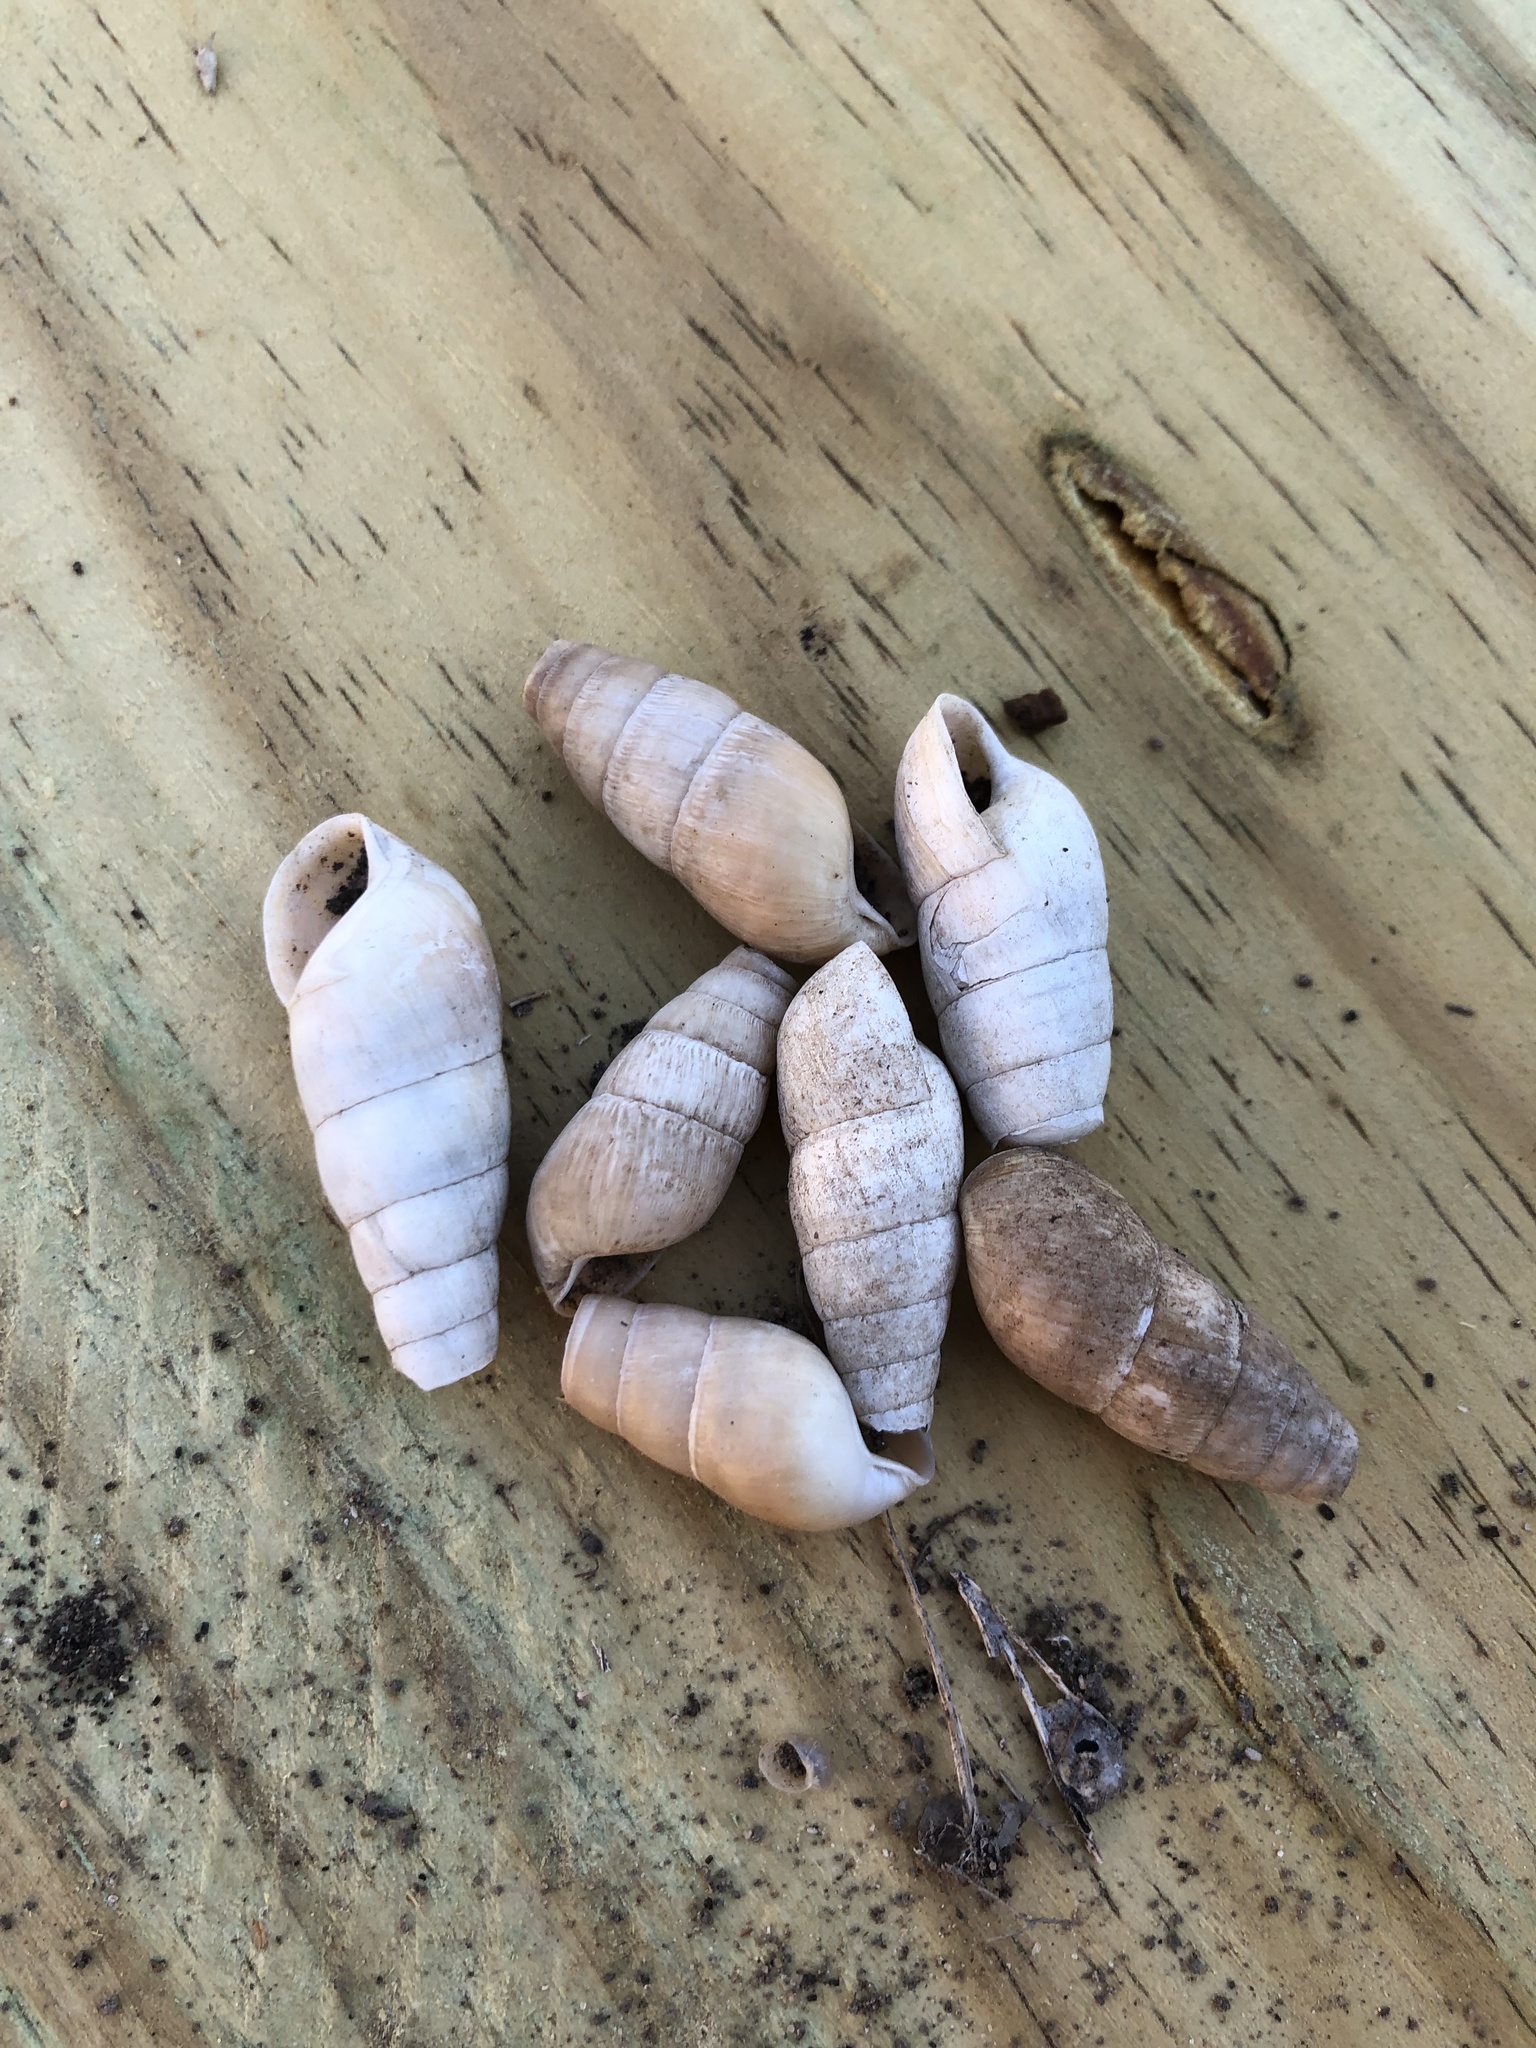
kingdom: Animalia
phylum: Mollusca
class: Gastropoda
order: Stylommatophora
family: Achatinidae
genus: Rumina
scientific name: Rumina decollata
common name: Decollate snail
